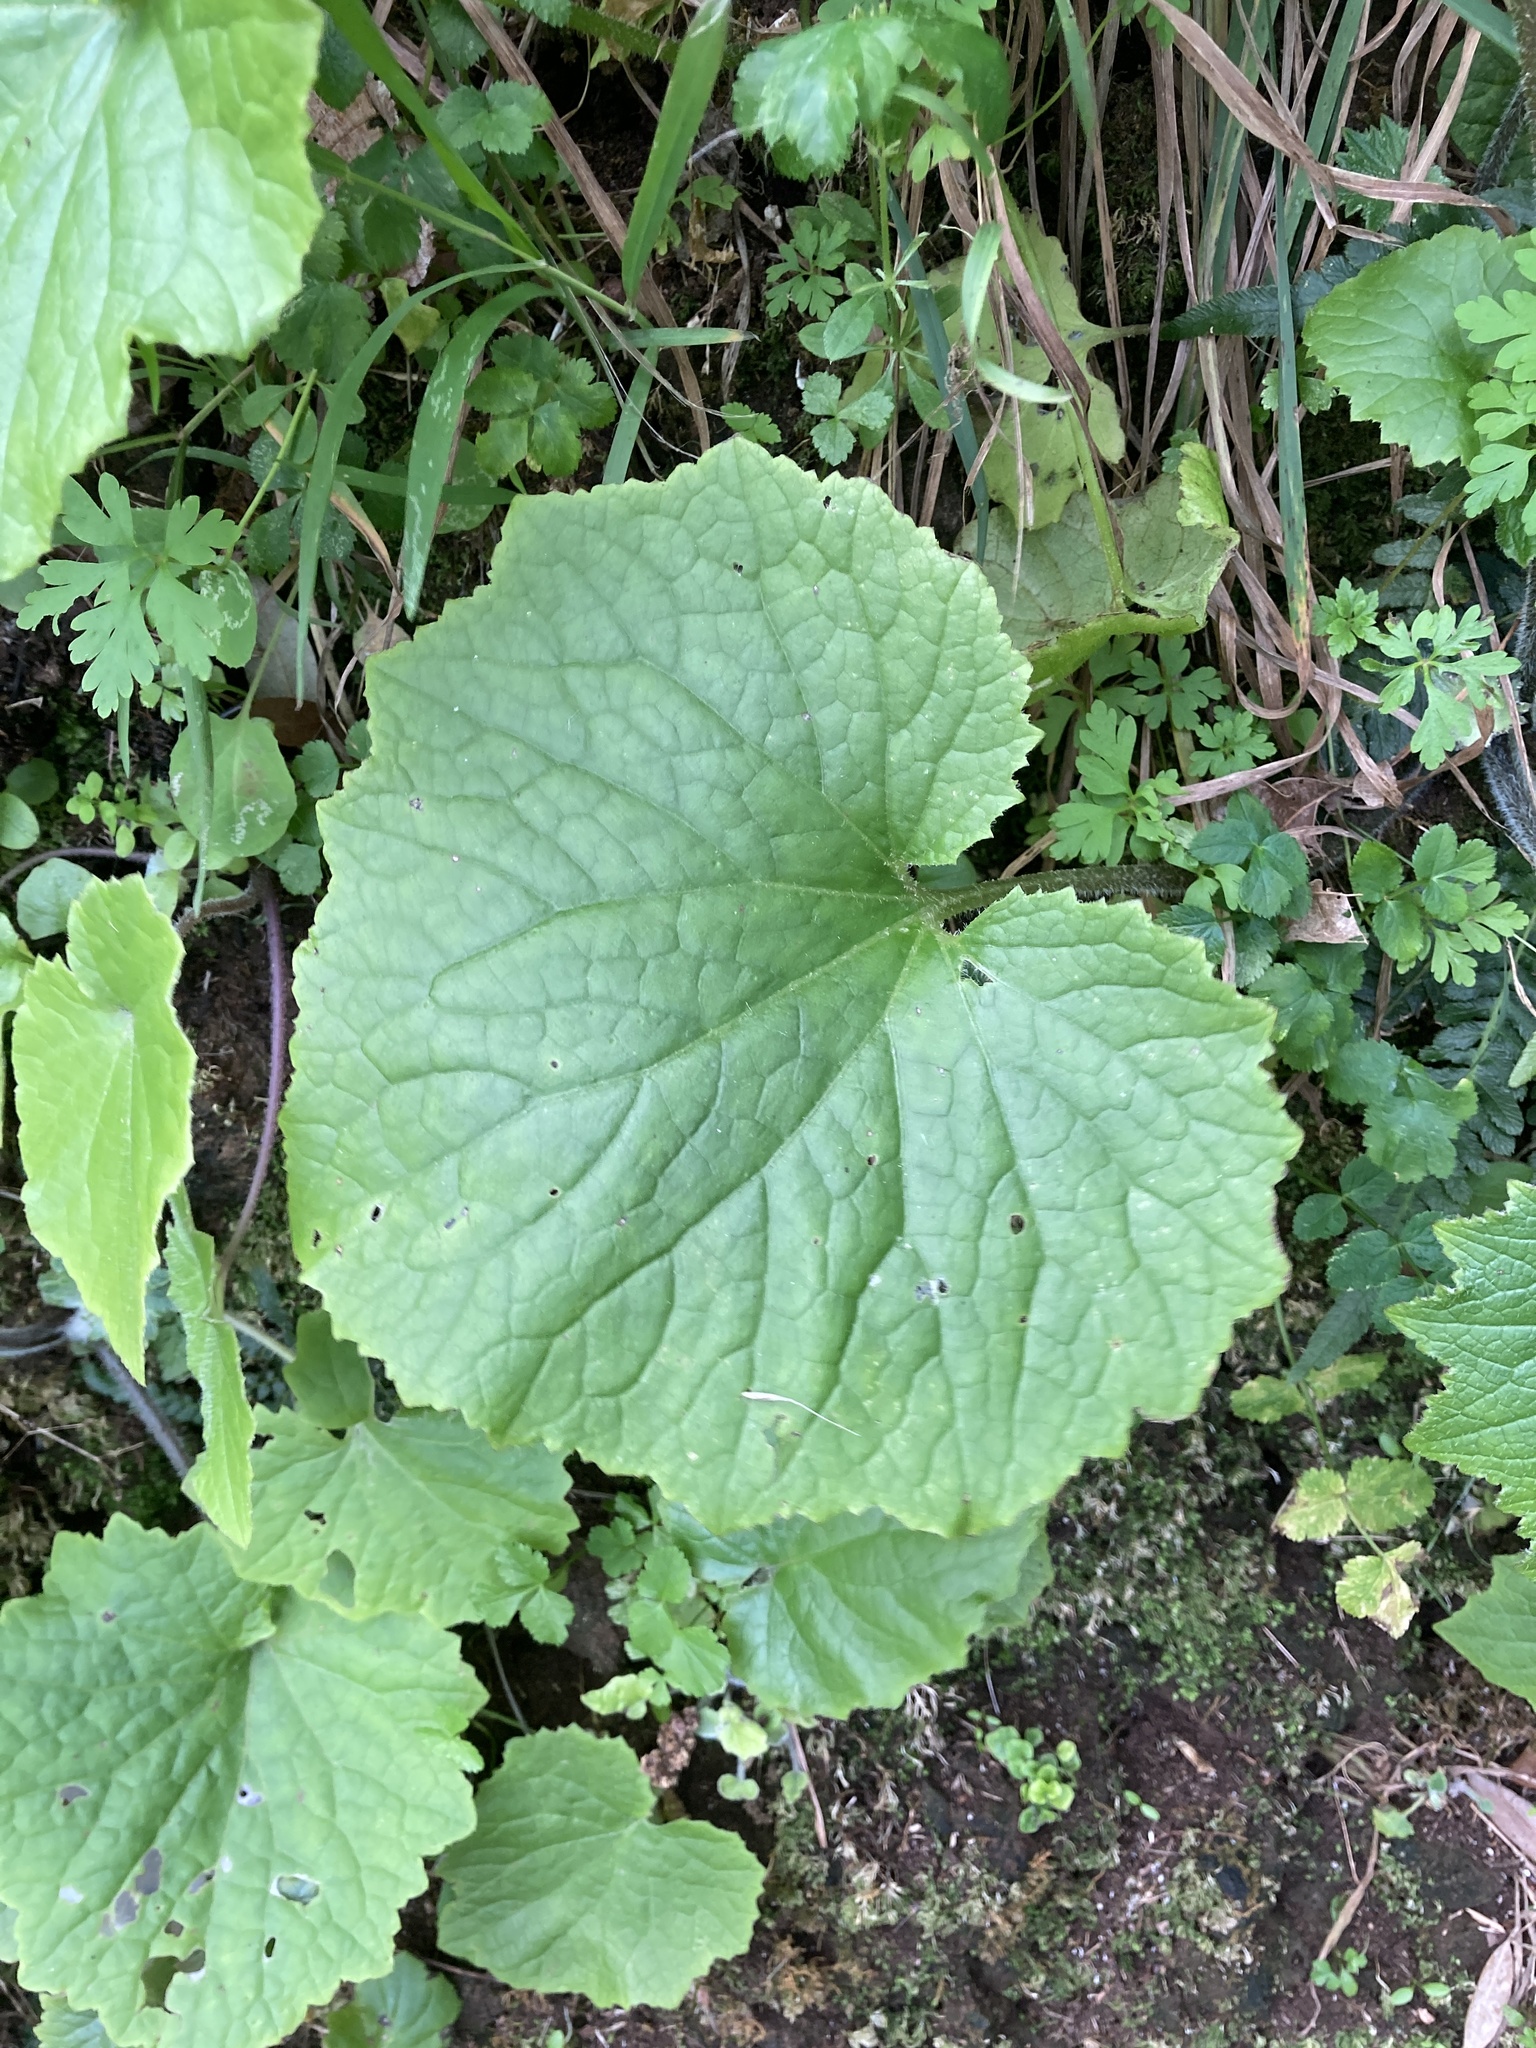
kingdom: Plantae
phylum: Tracheophyta
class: Magnoliopsida
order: Asterales
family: Asteraceae
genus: Pericallis
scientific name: Pericallis hybrida
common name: Cineraria
